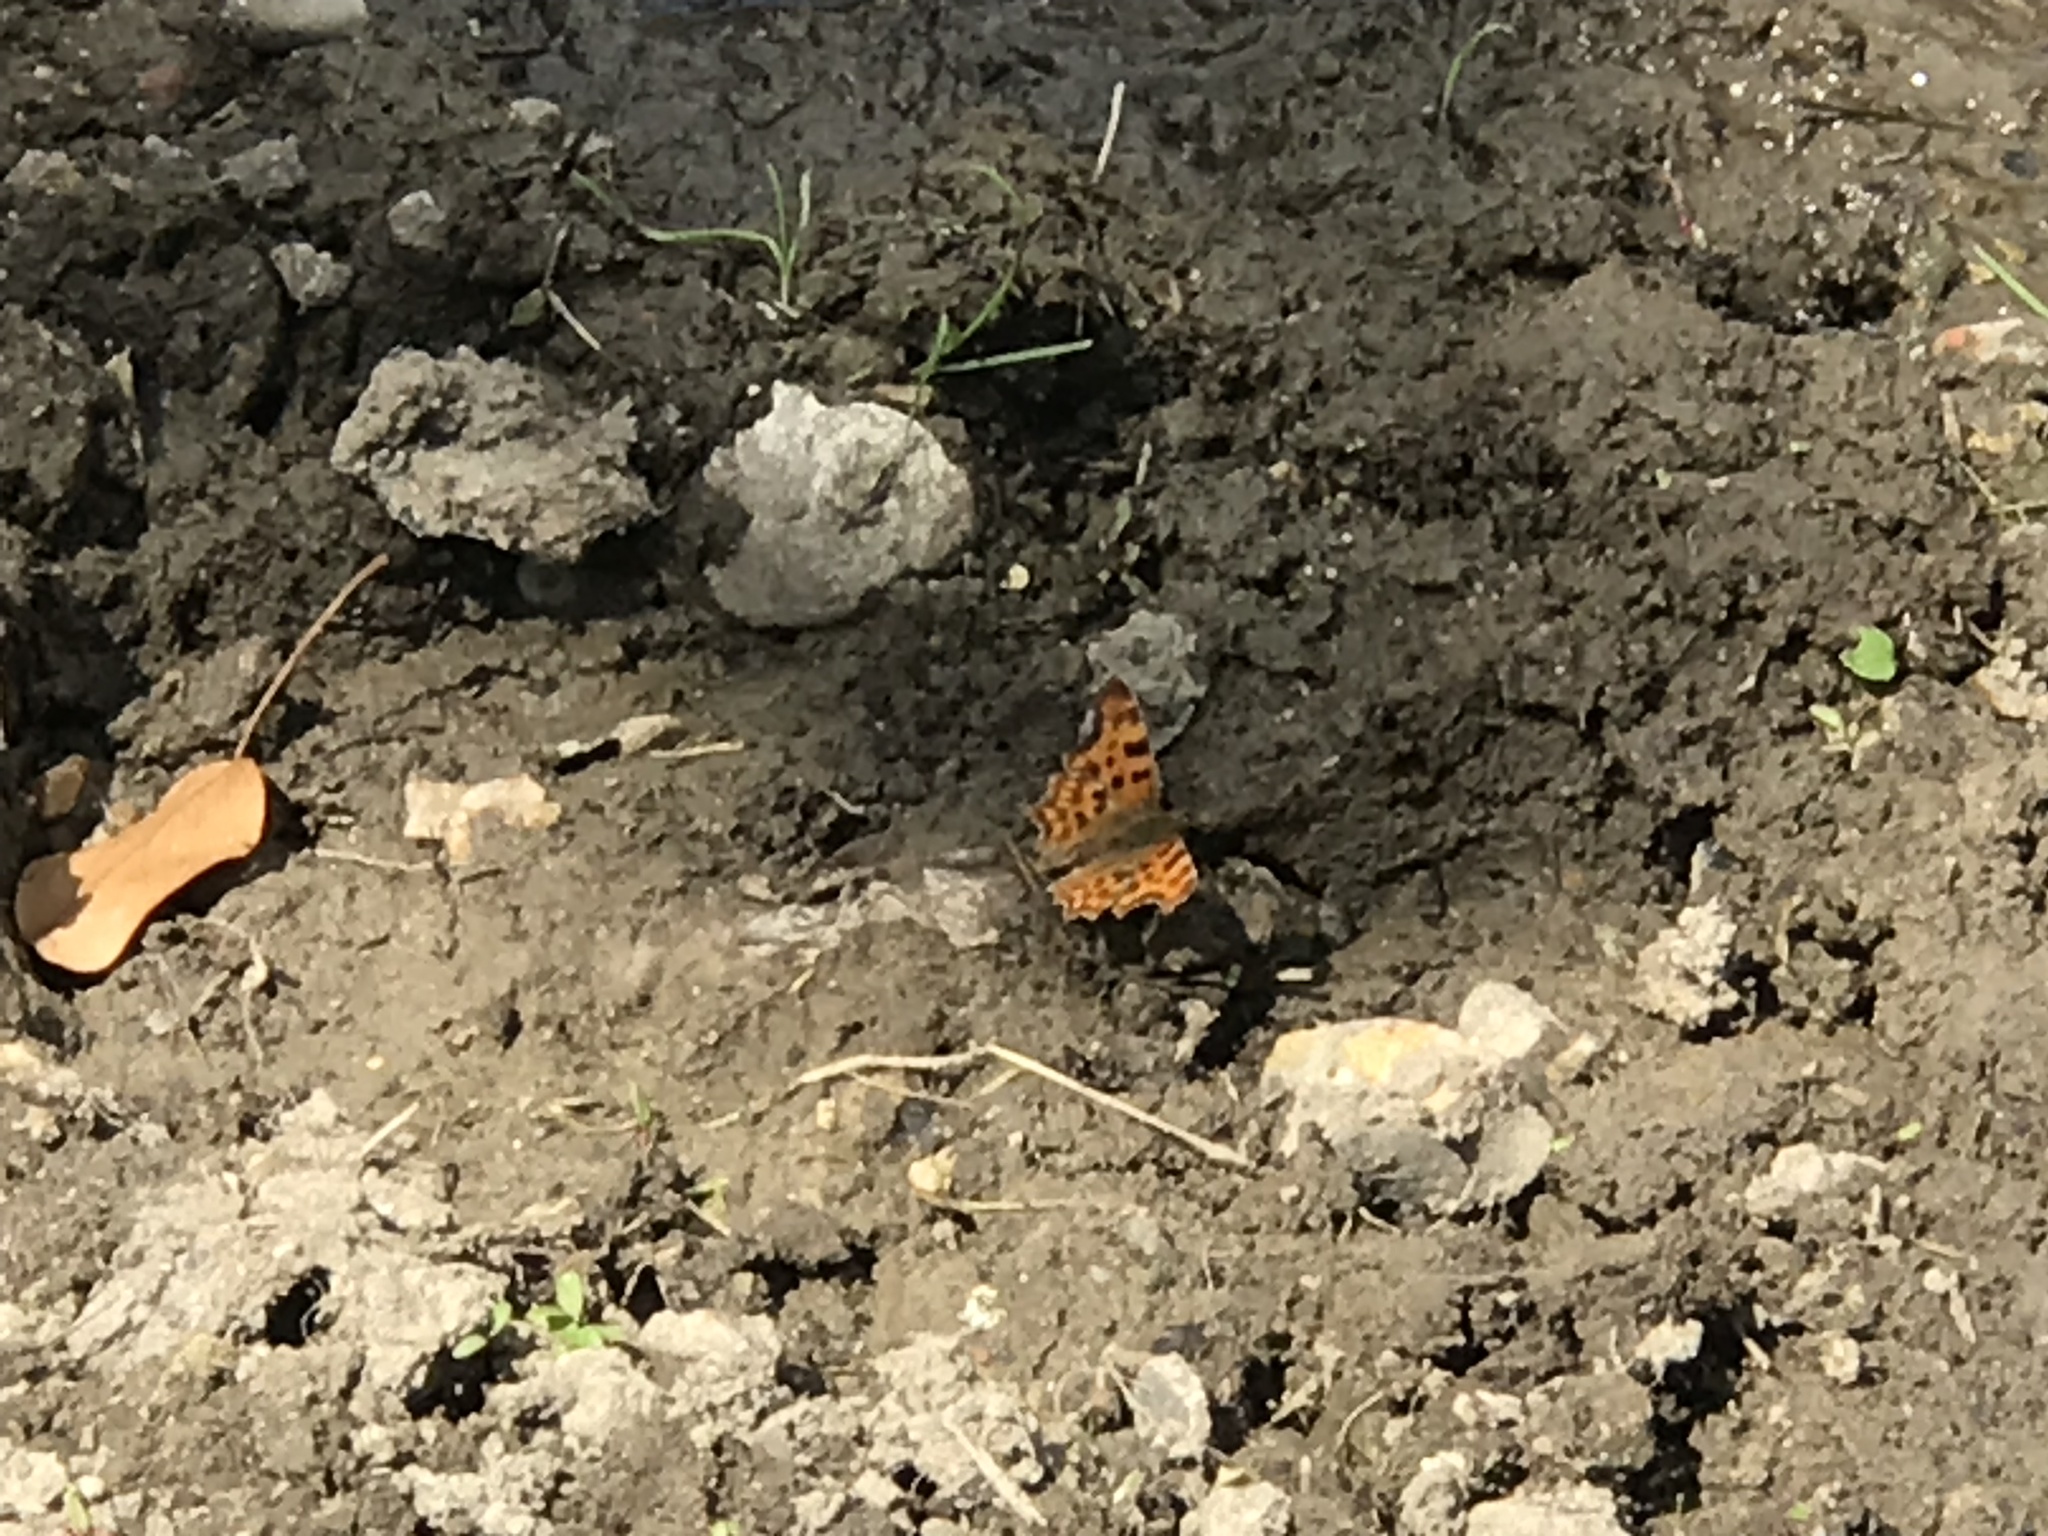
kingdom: Animalia
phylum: Arthropoda
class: Insecta
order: Lepidoptera
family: Nymphalidae
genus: Polygonia
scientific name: Polygonia c-album
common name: Comma
